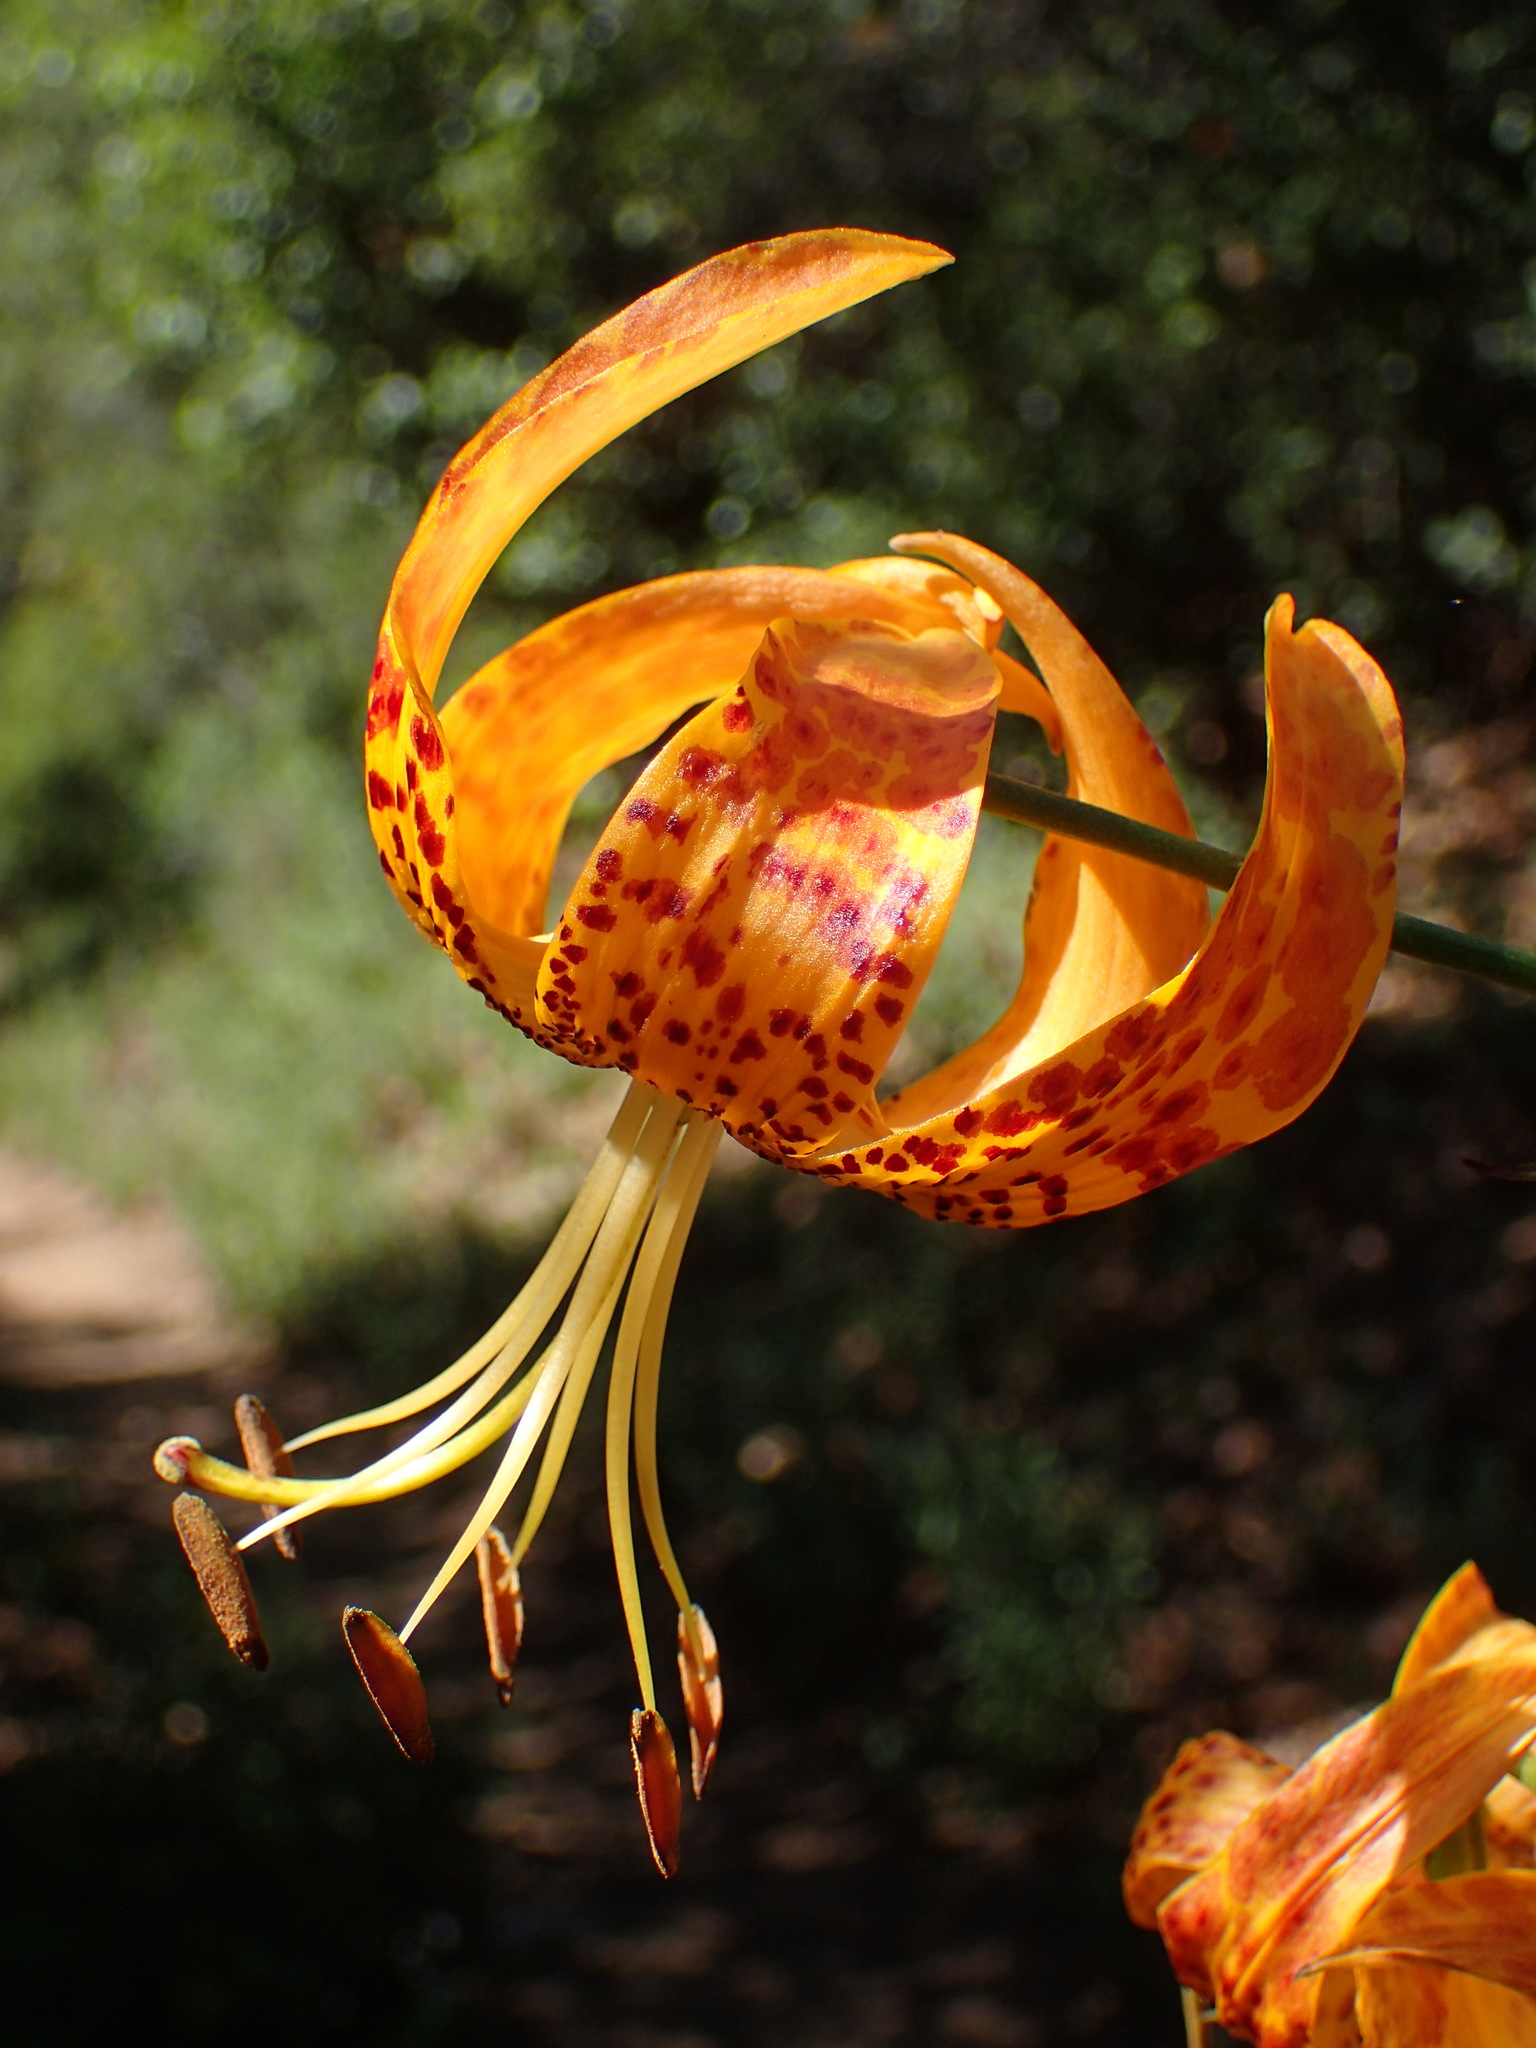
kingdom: Plantae
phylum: Tracheophyta
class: Liliopsida
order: Liliales
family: Liliaceae
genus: Lilium
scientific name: Lilium humboldtii
